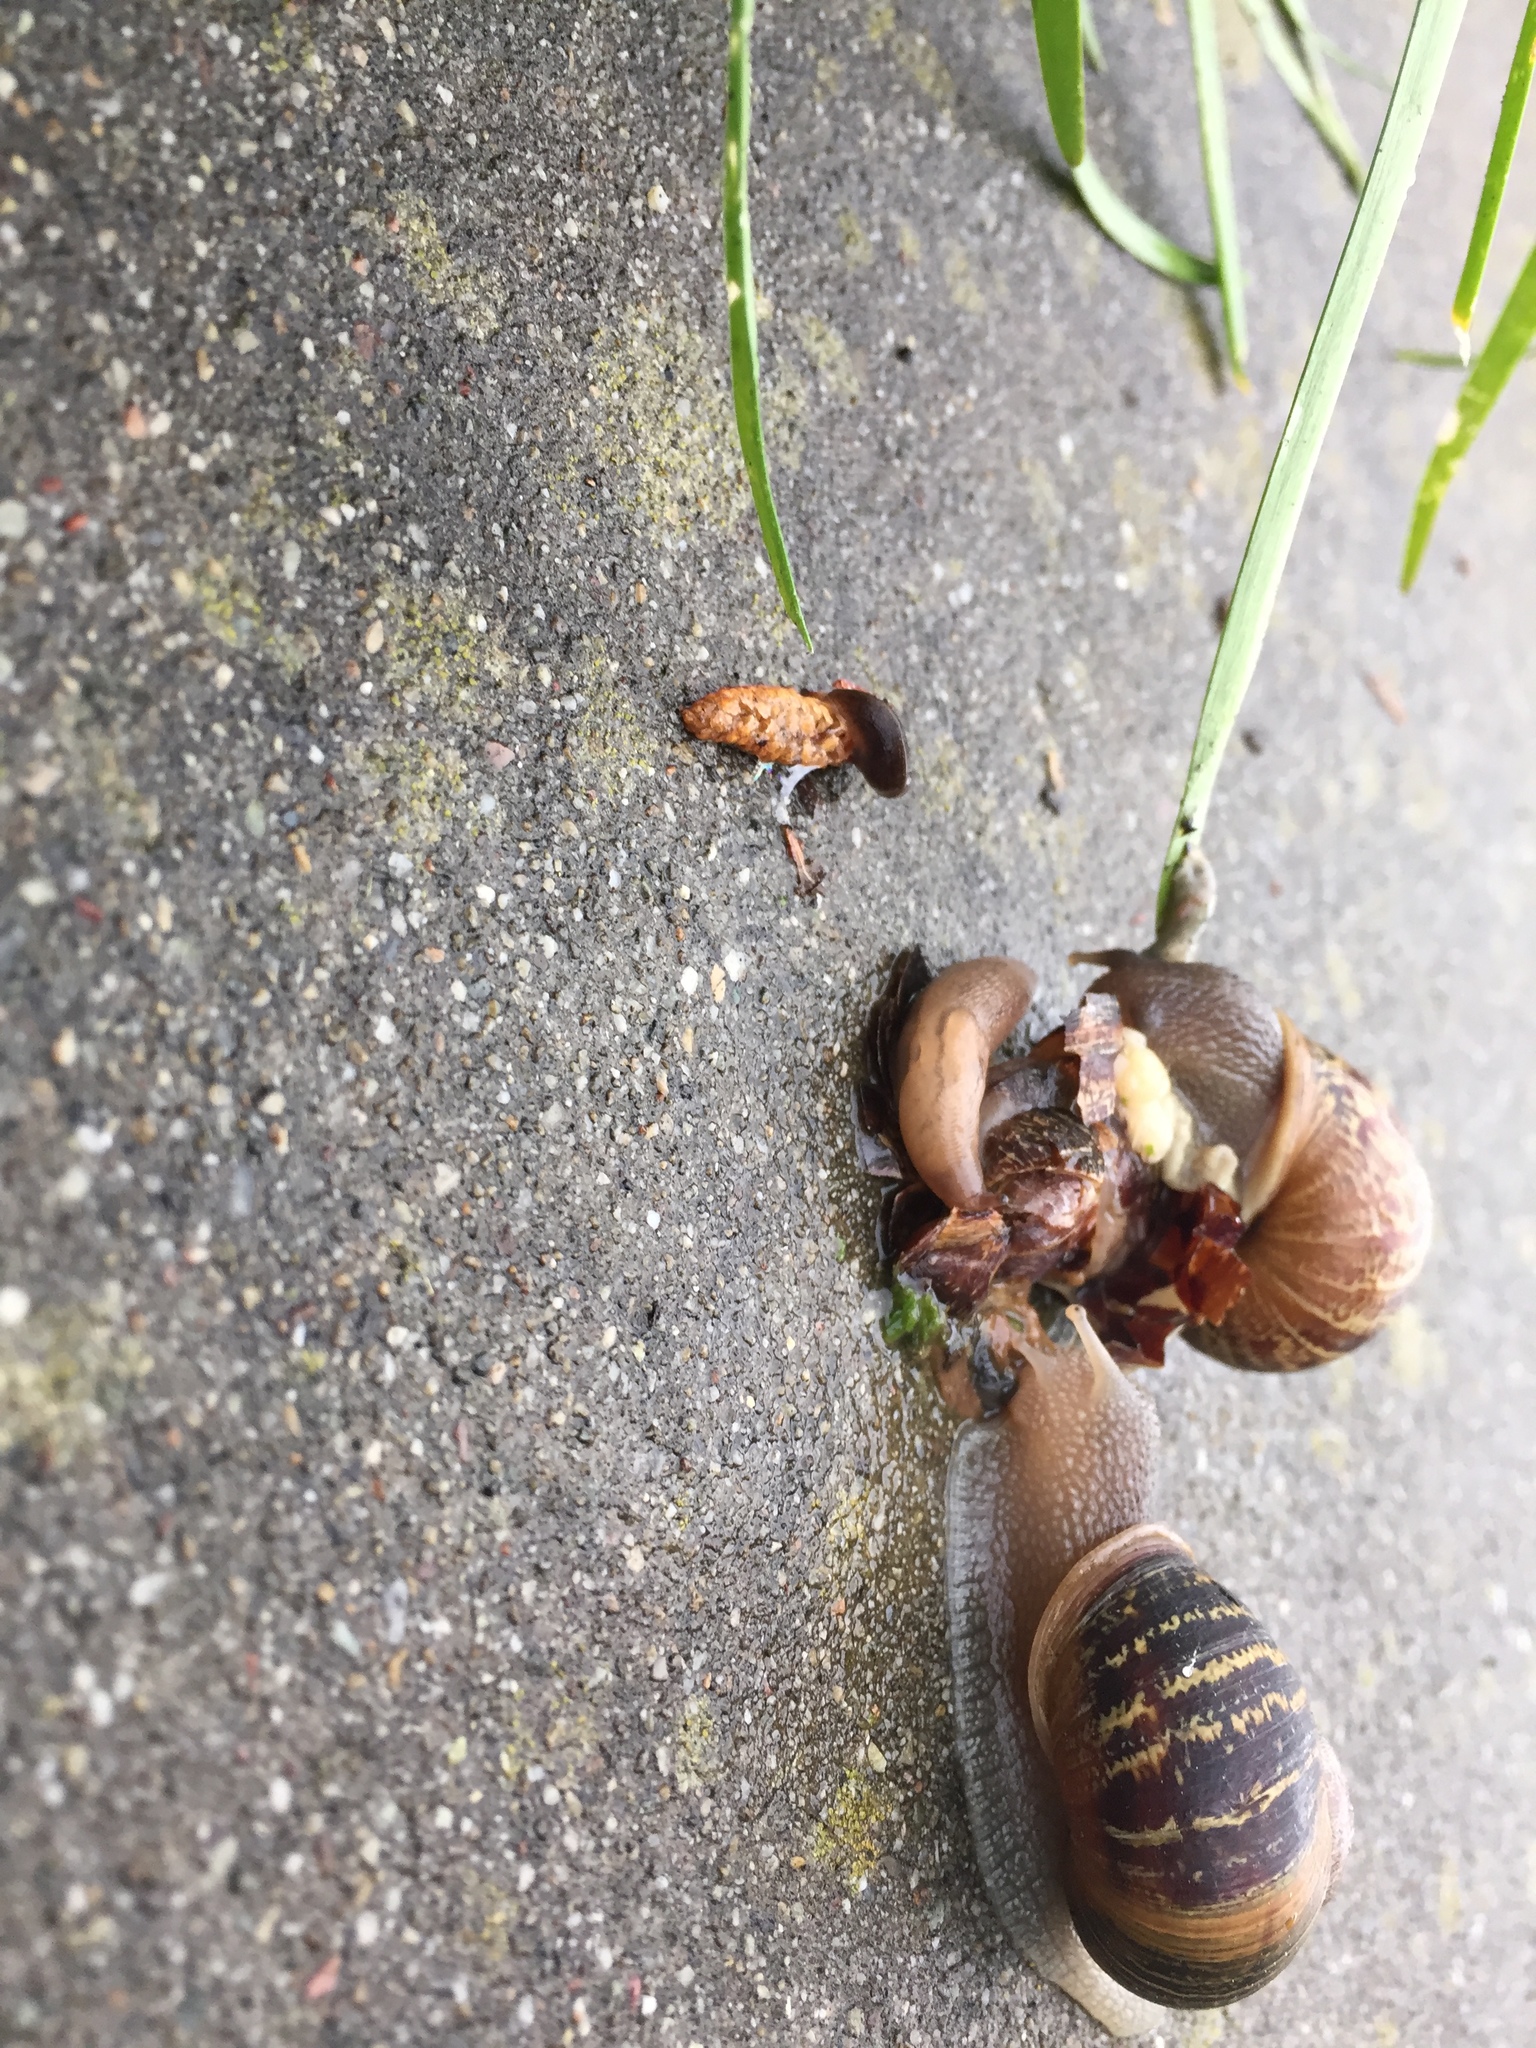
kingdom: Animalia
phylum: Mollusca
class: Gastropoda
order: Stylommatophora
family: Helicidae
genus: Cornu
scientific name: Cornu aspersum
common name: Brown garden snail
